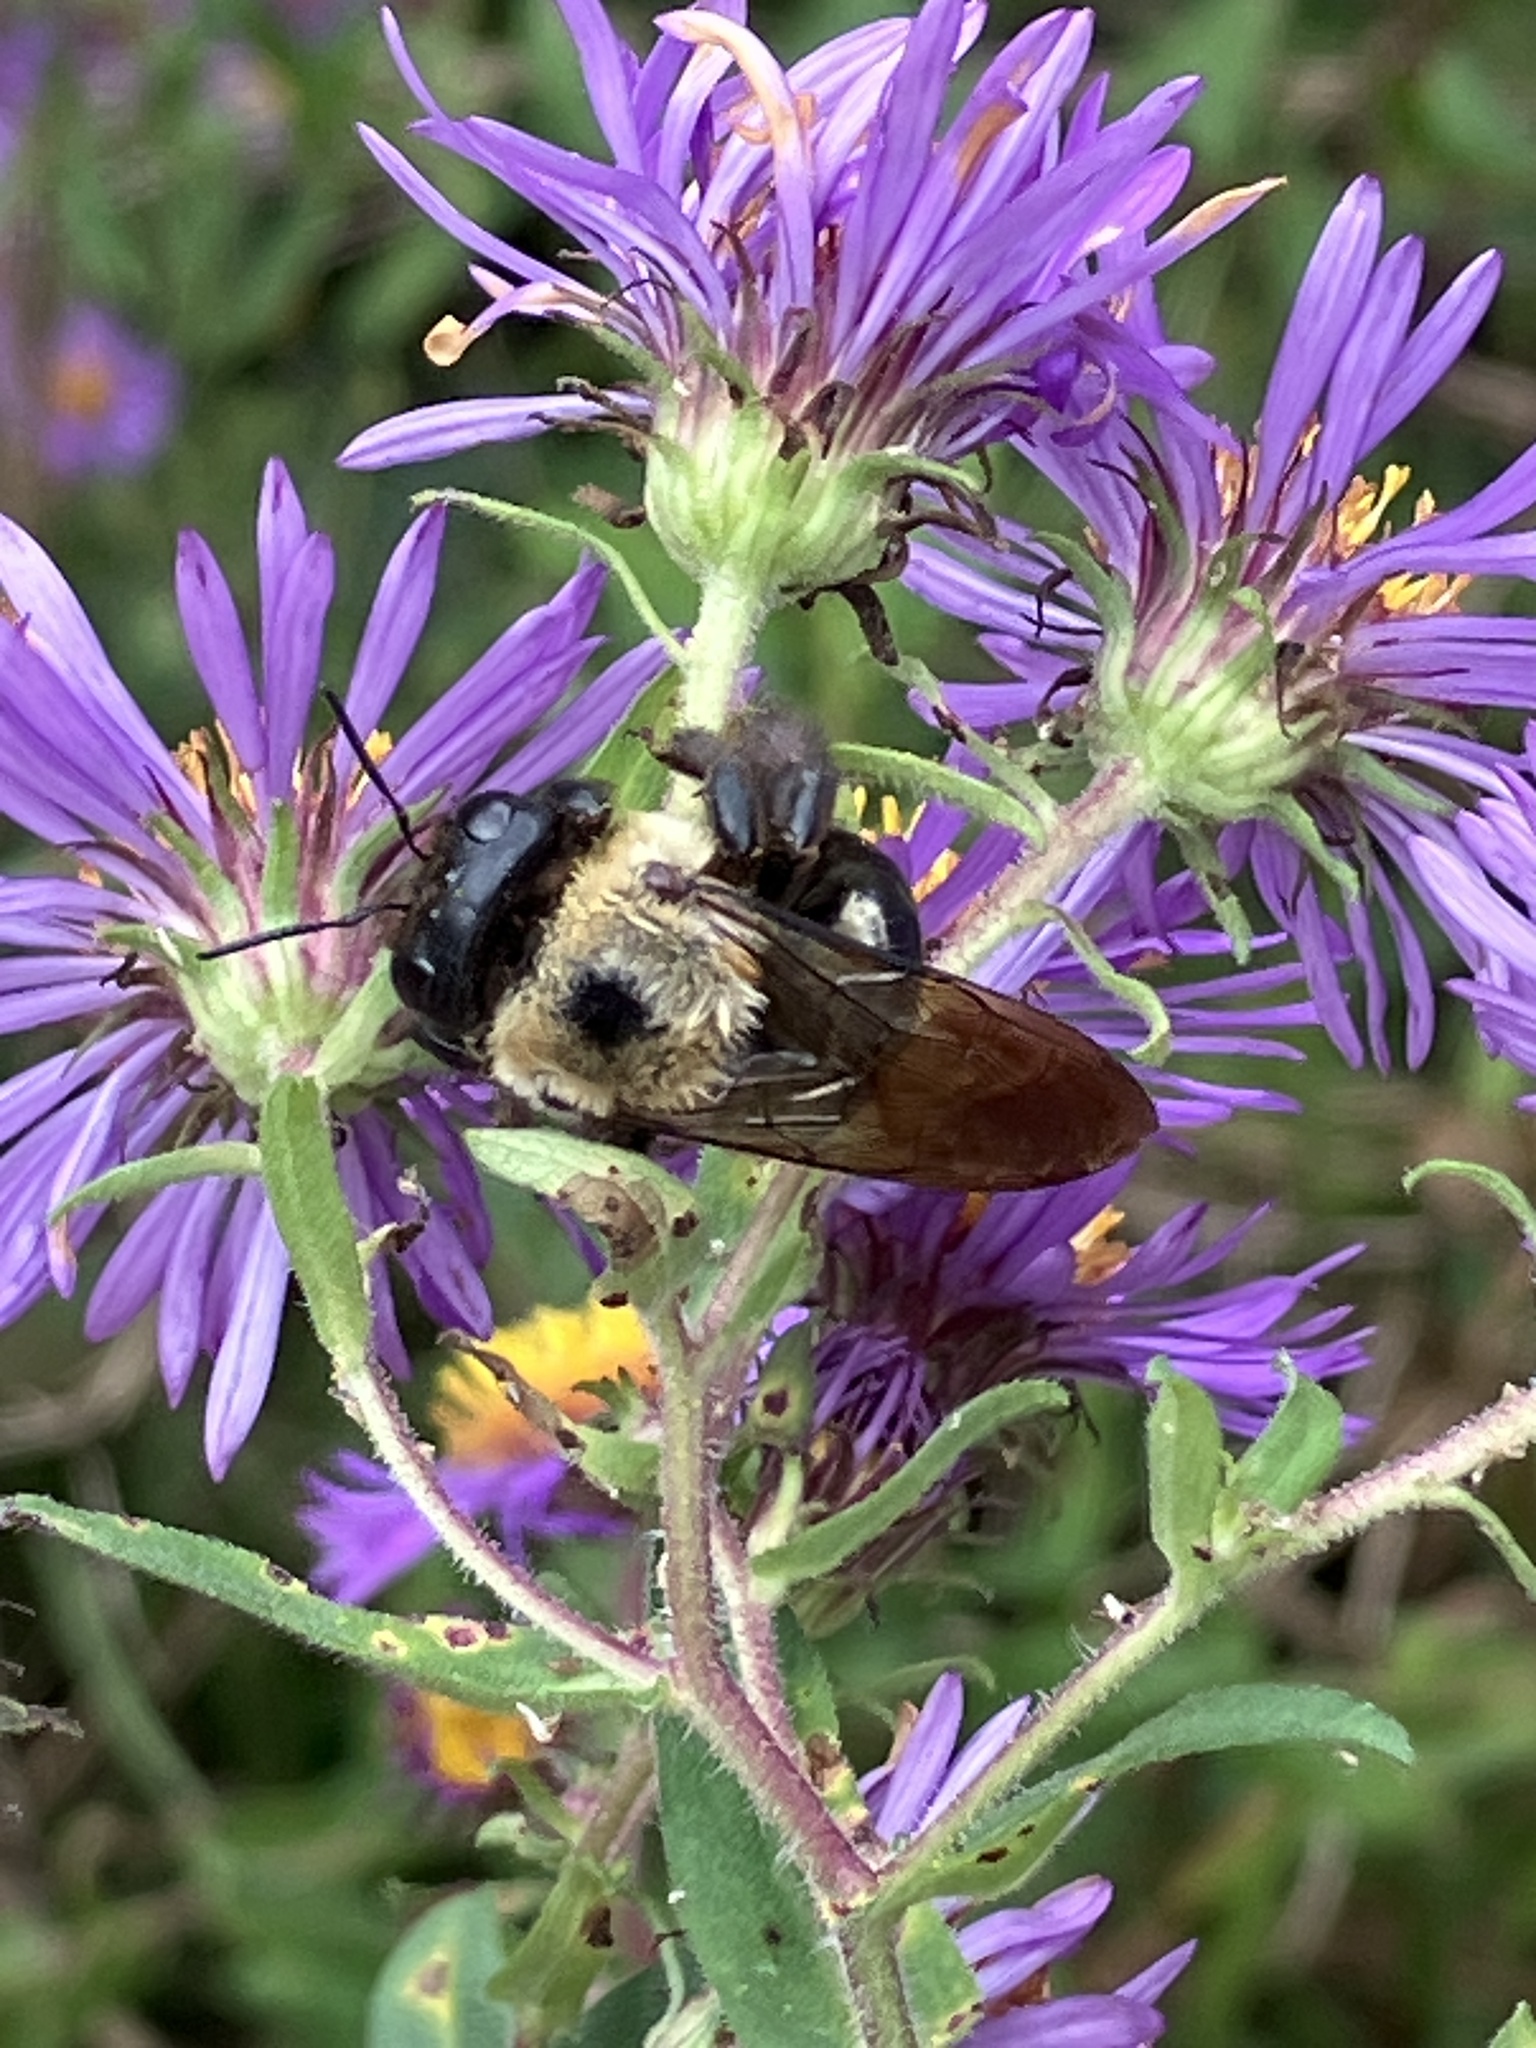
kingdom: Animalia
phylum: Arthropoda
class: Insecta
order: Hymenoptera
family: Apidae
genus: Xylocopa
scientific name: Xylocopa virginica
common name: Carpenter bee
